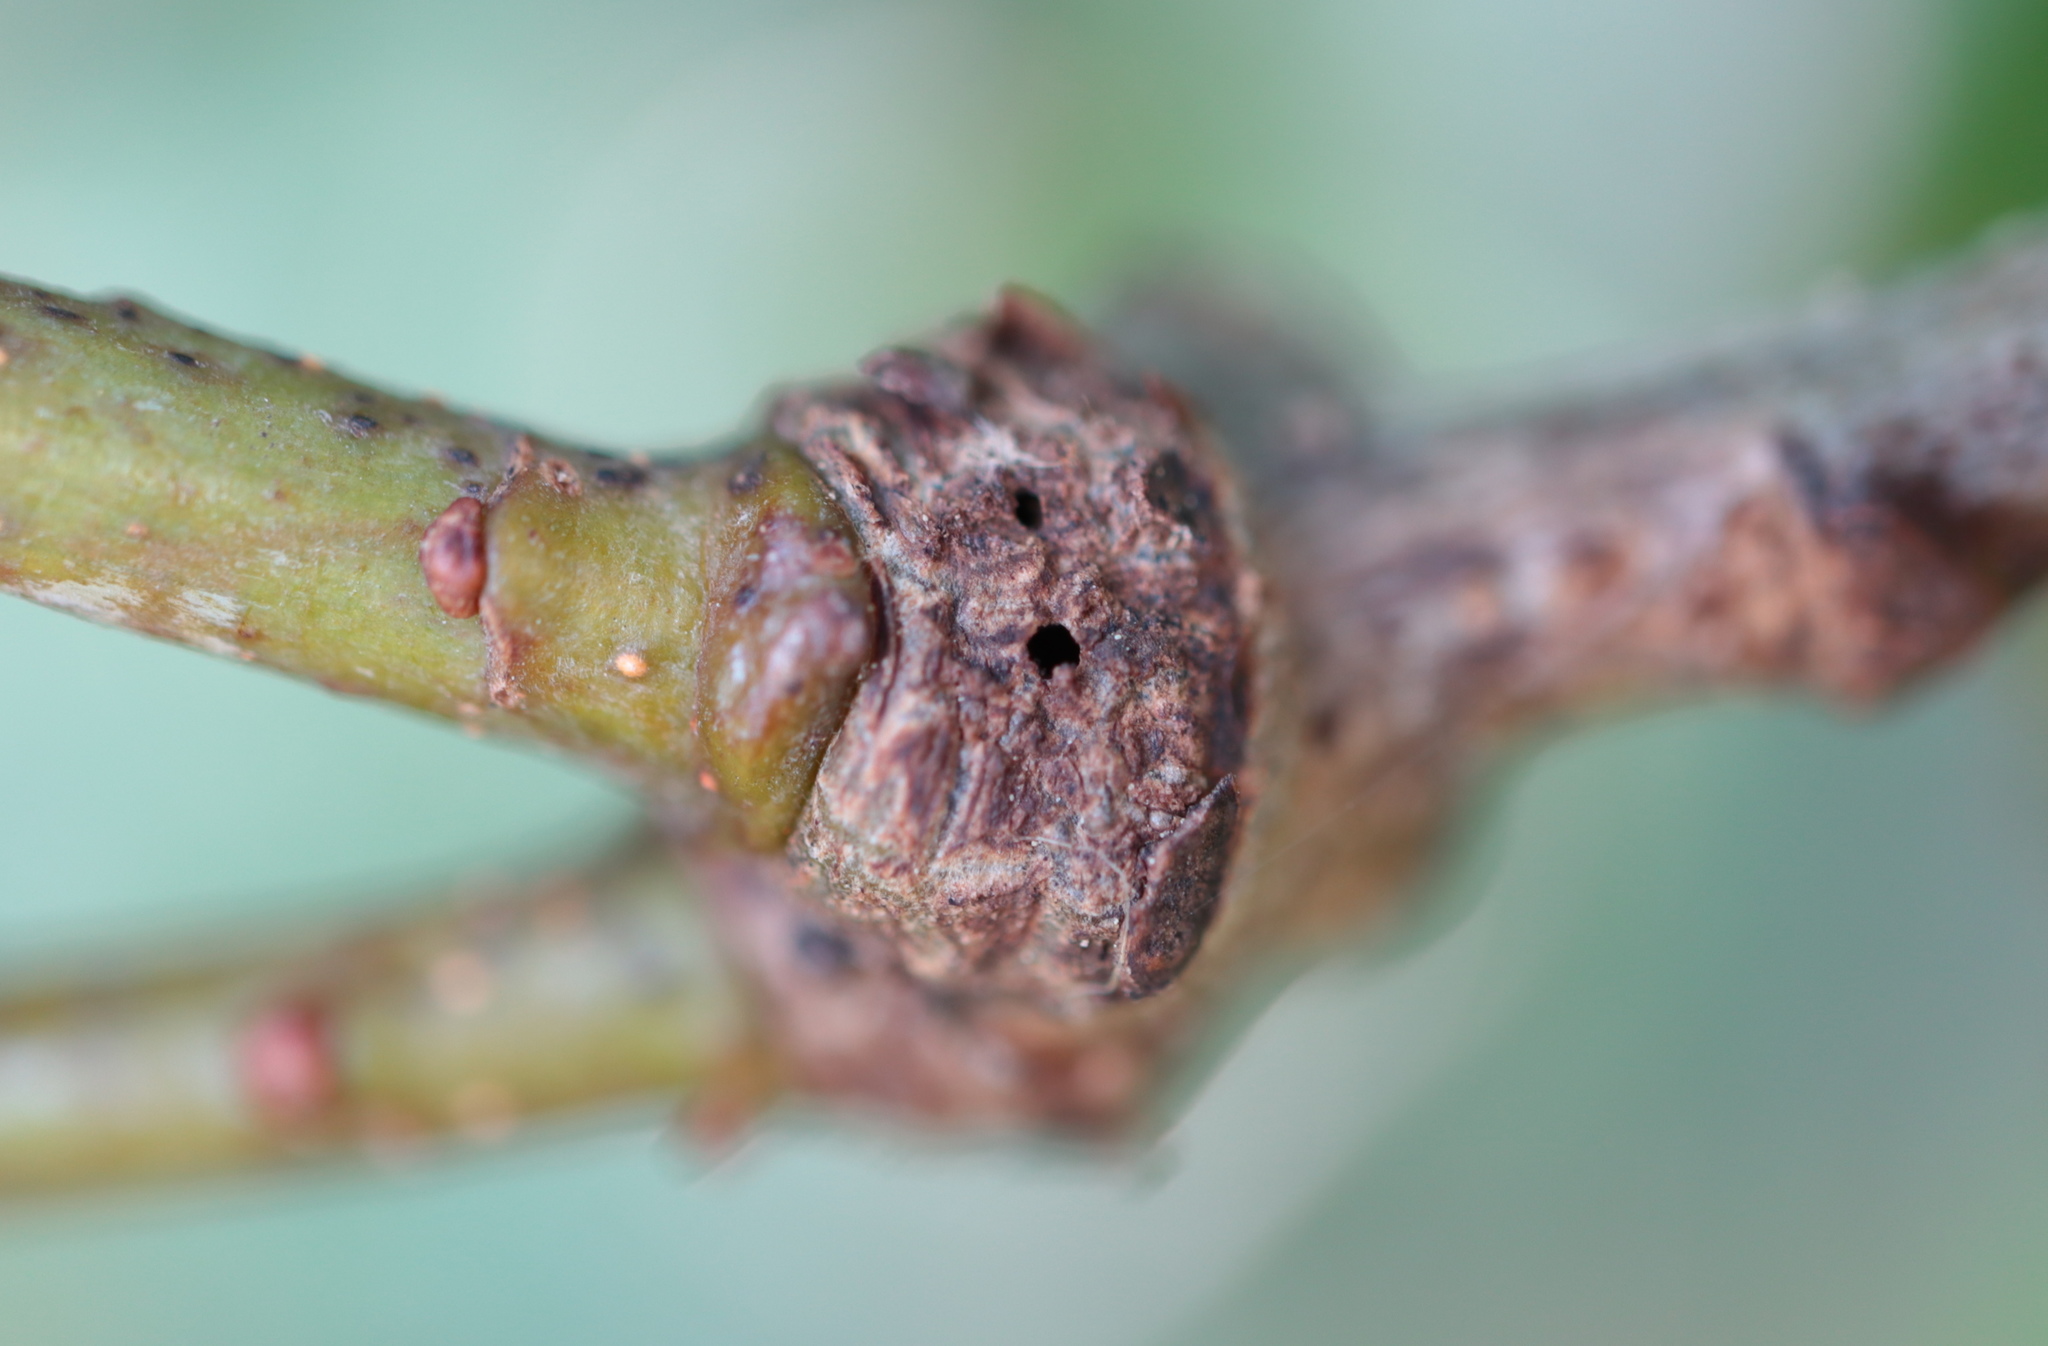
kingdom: Animalia
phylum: Arthropoda
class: Insecta
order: Hymenoptera
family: Cynipidae
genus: Loxaulus
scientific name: Loxaulus
